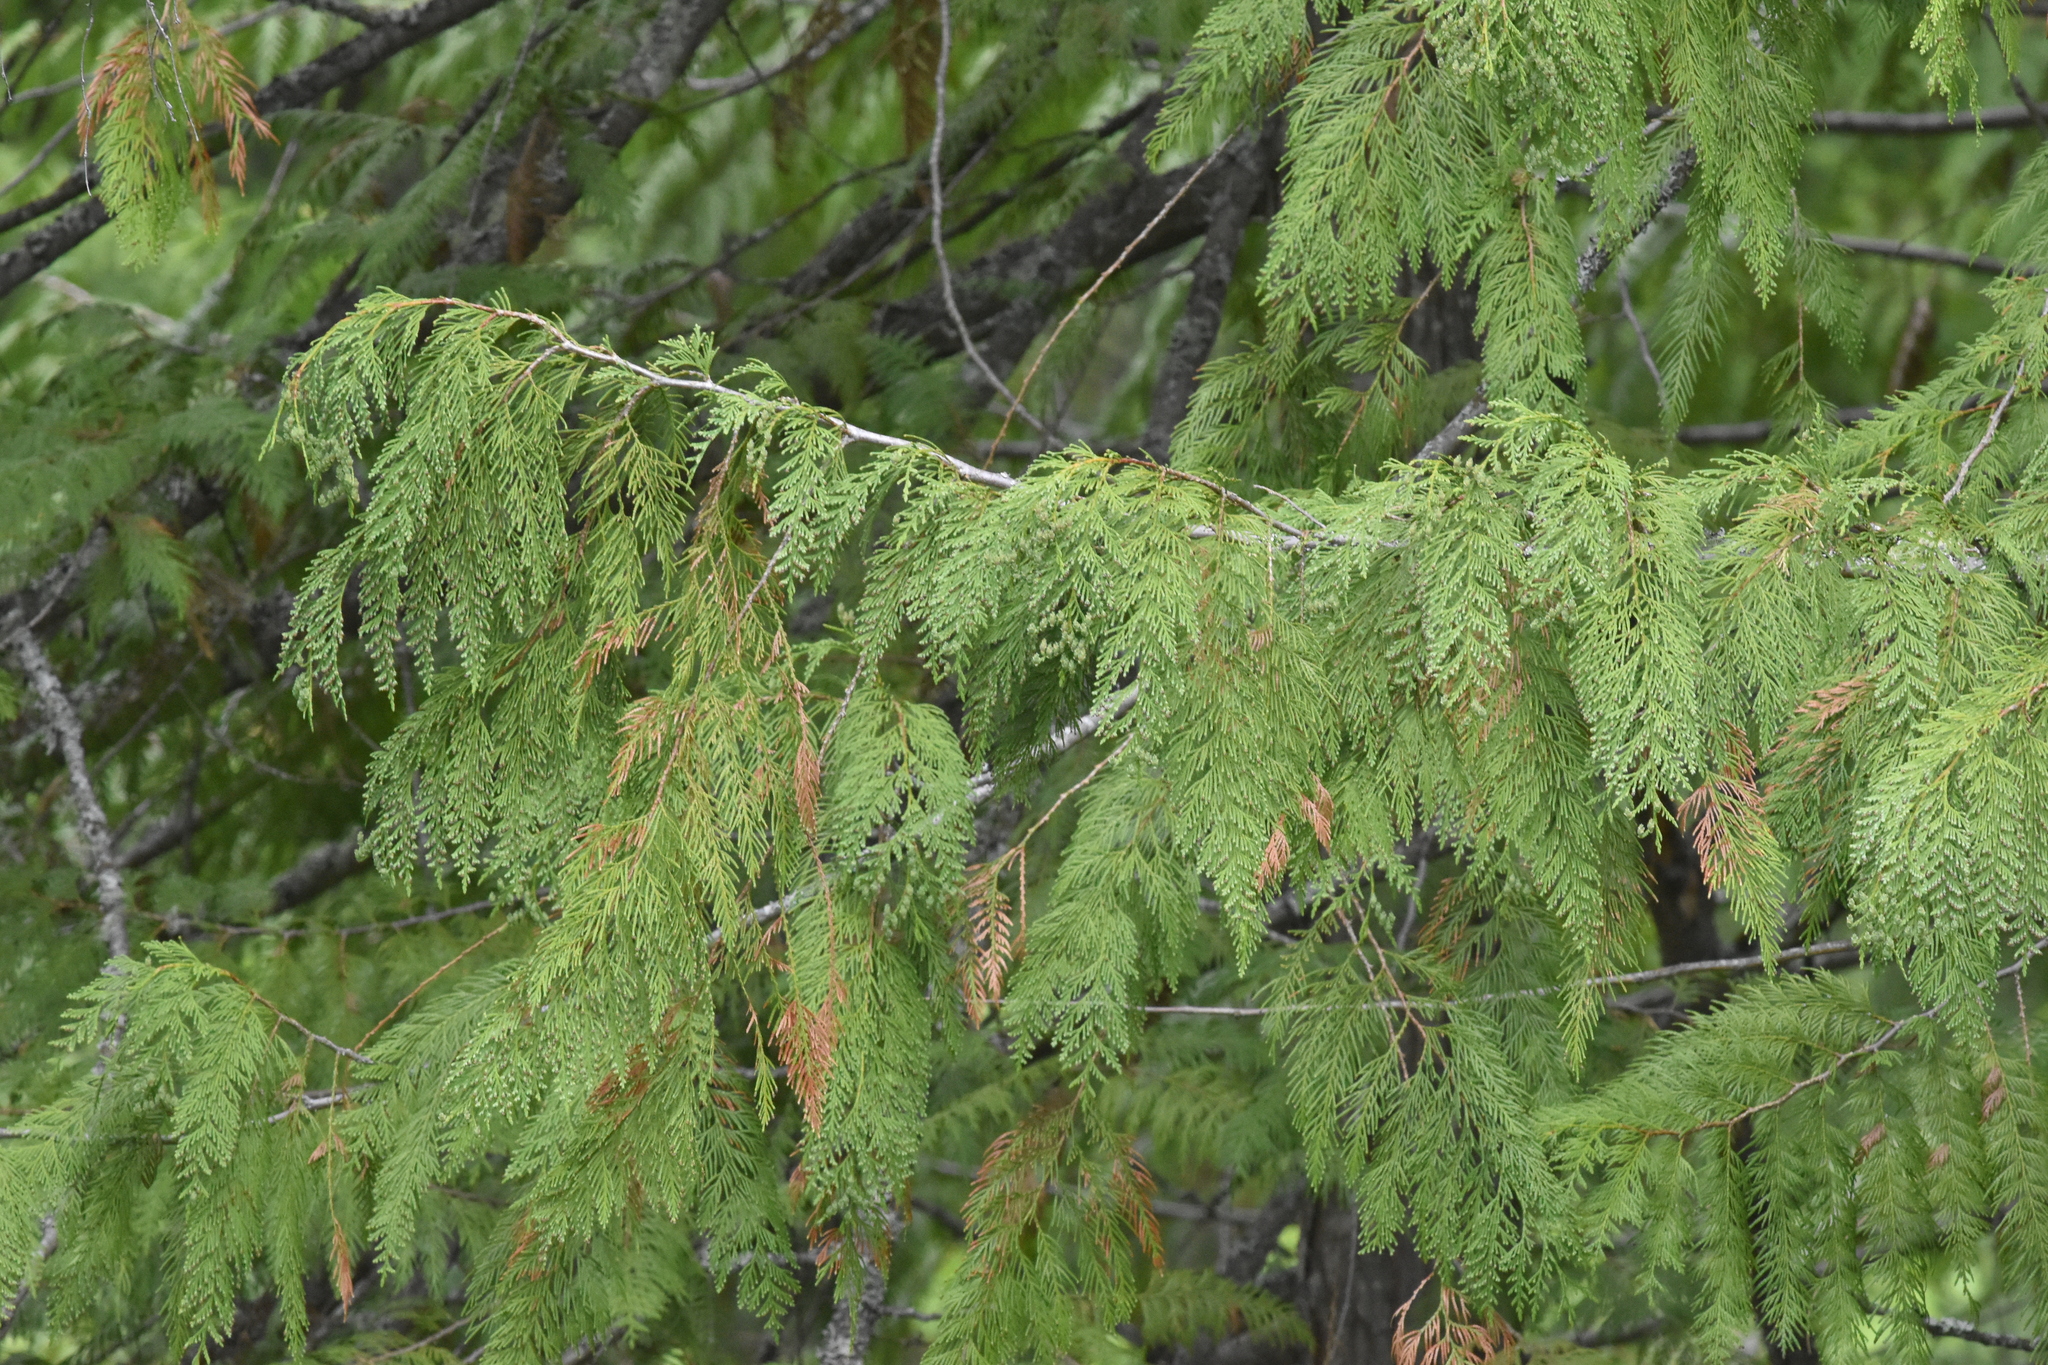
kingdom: Plantae
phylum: Tracheophyta
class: Pinopsida
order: Pinales
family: Cupressaceae
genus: Thuja
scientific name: Thuja plicata
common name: Western red-cedar
